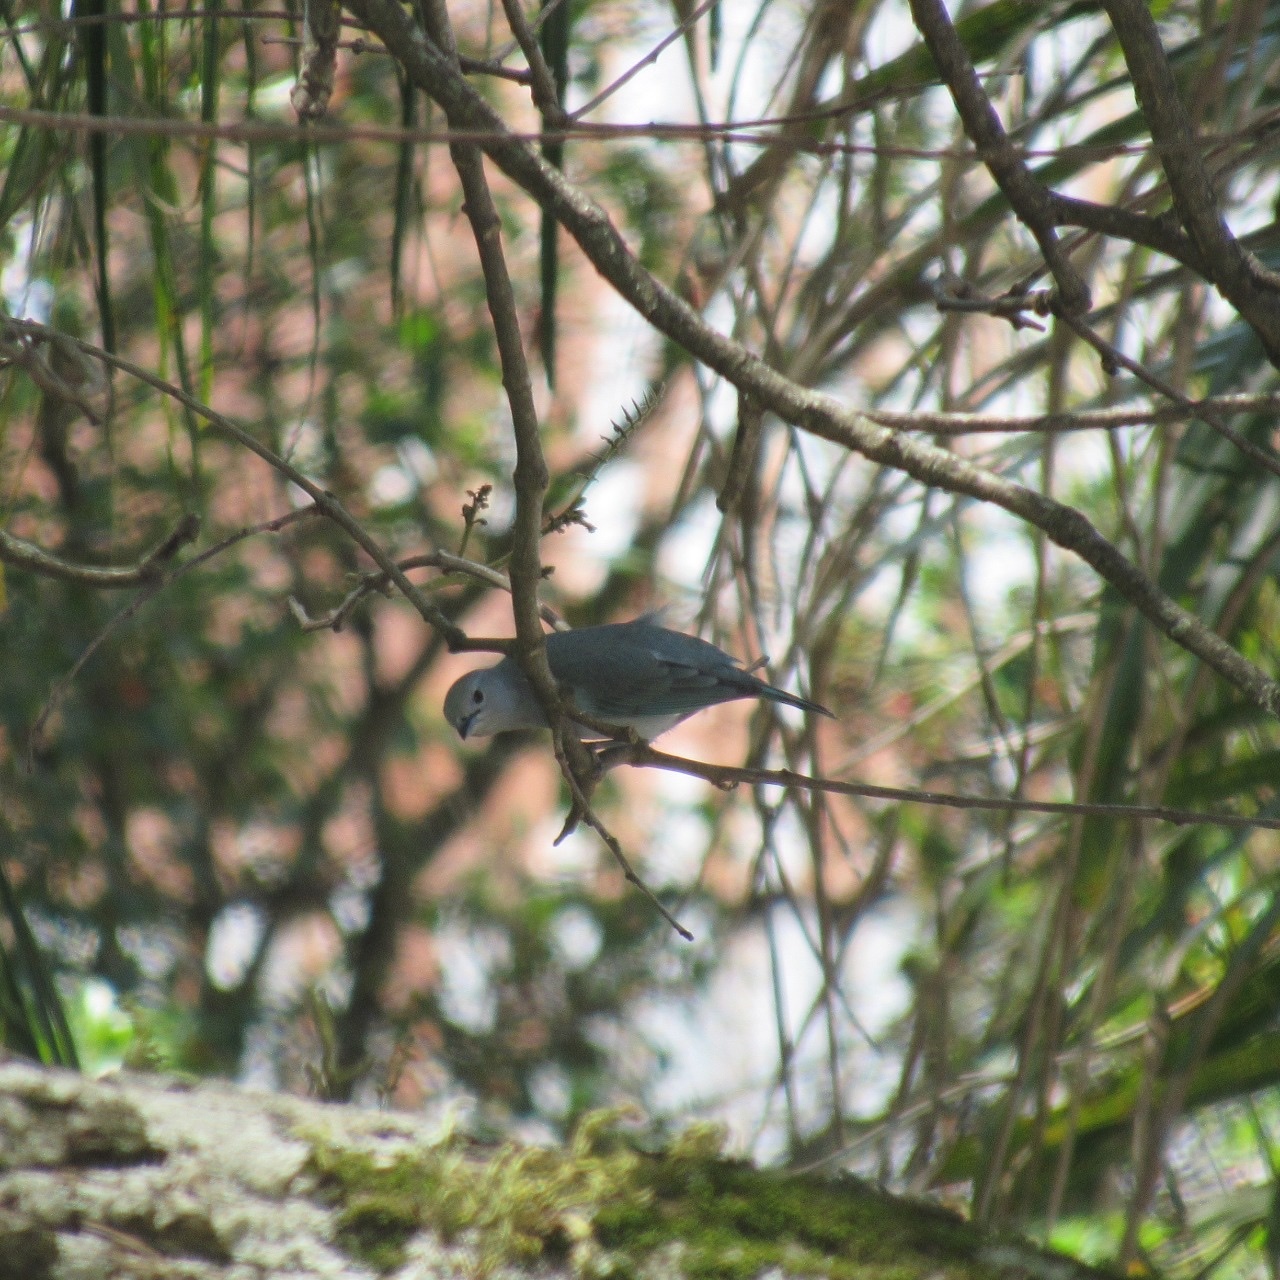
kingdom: Animalia
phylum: Chordata
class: Aves
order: Passeriformes
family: Thraupidae
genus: Thraupis
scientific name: Thraupis sayaca
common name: Sayaca tanager
